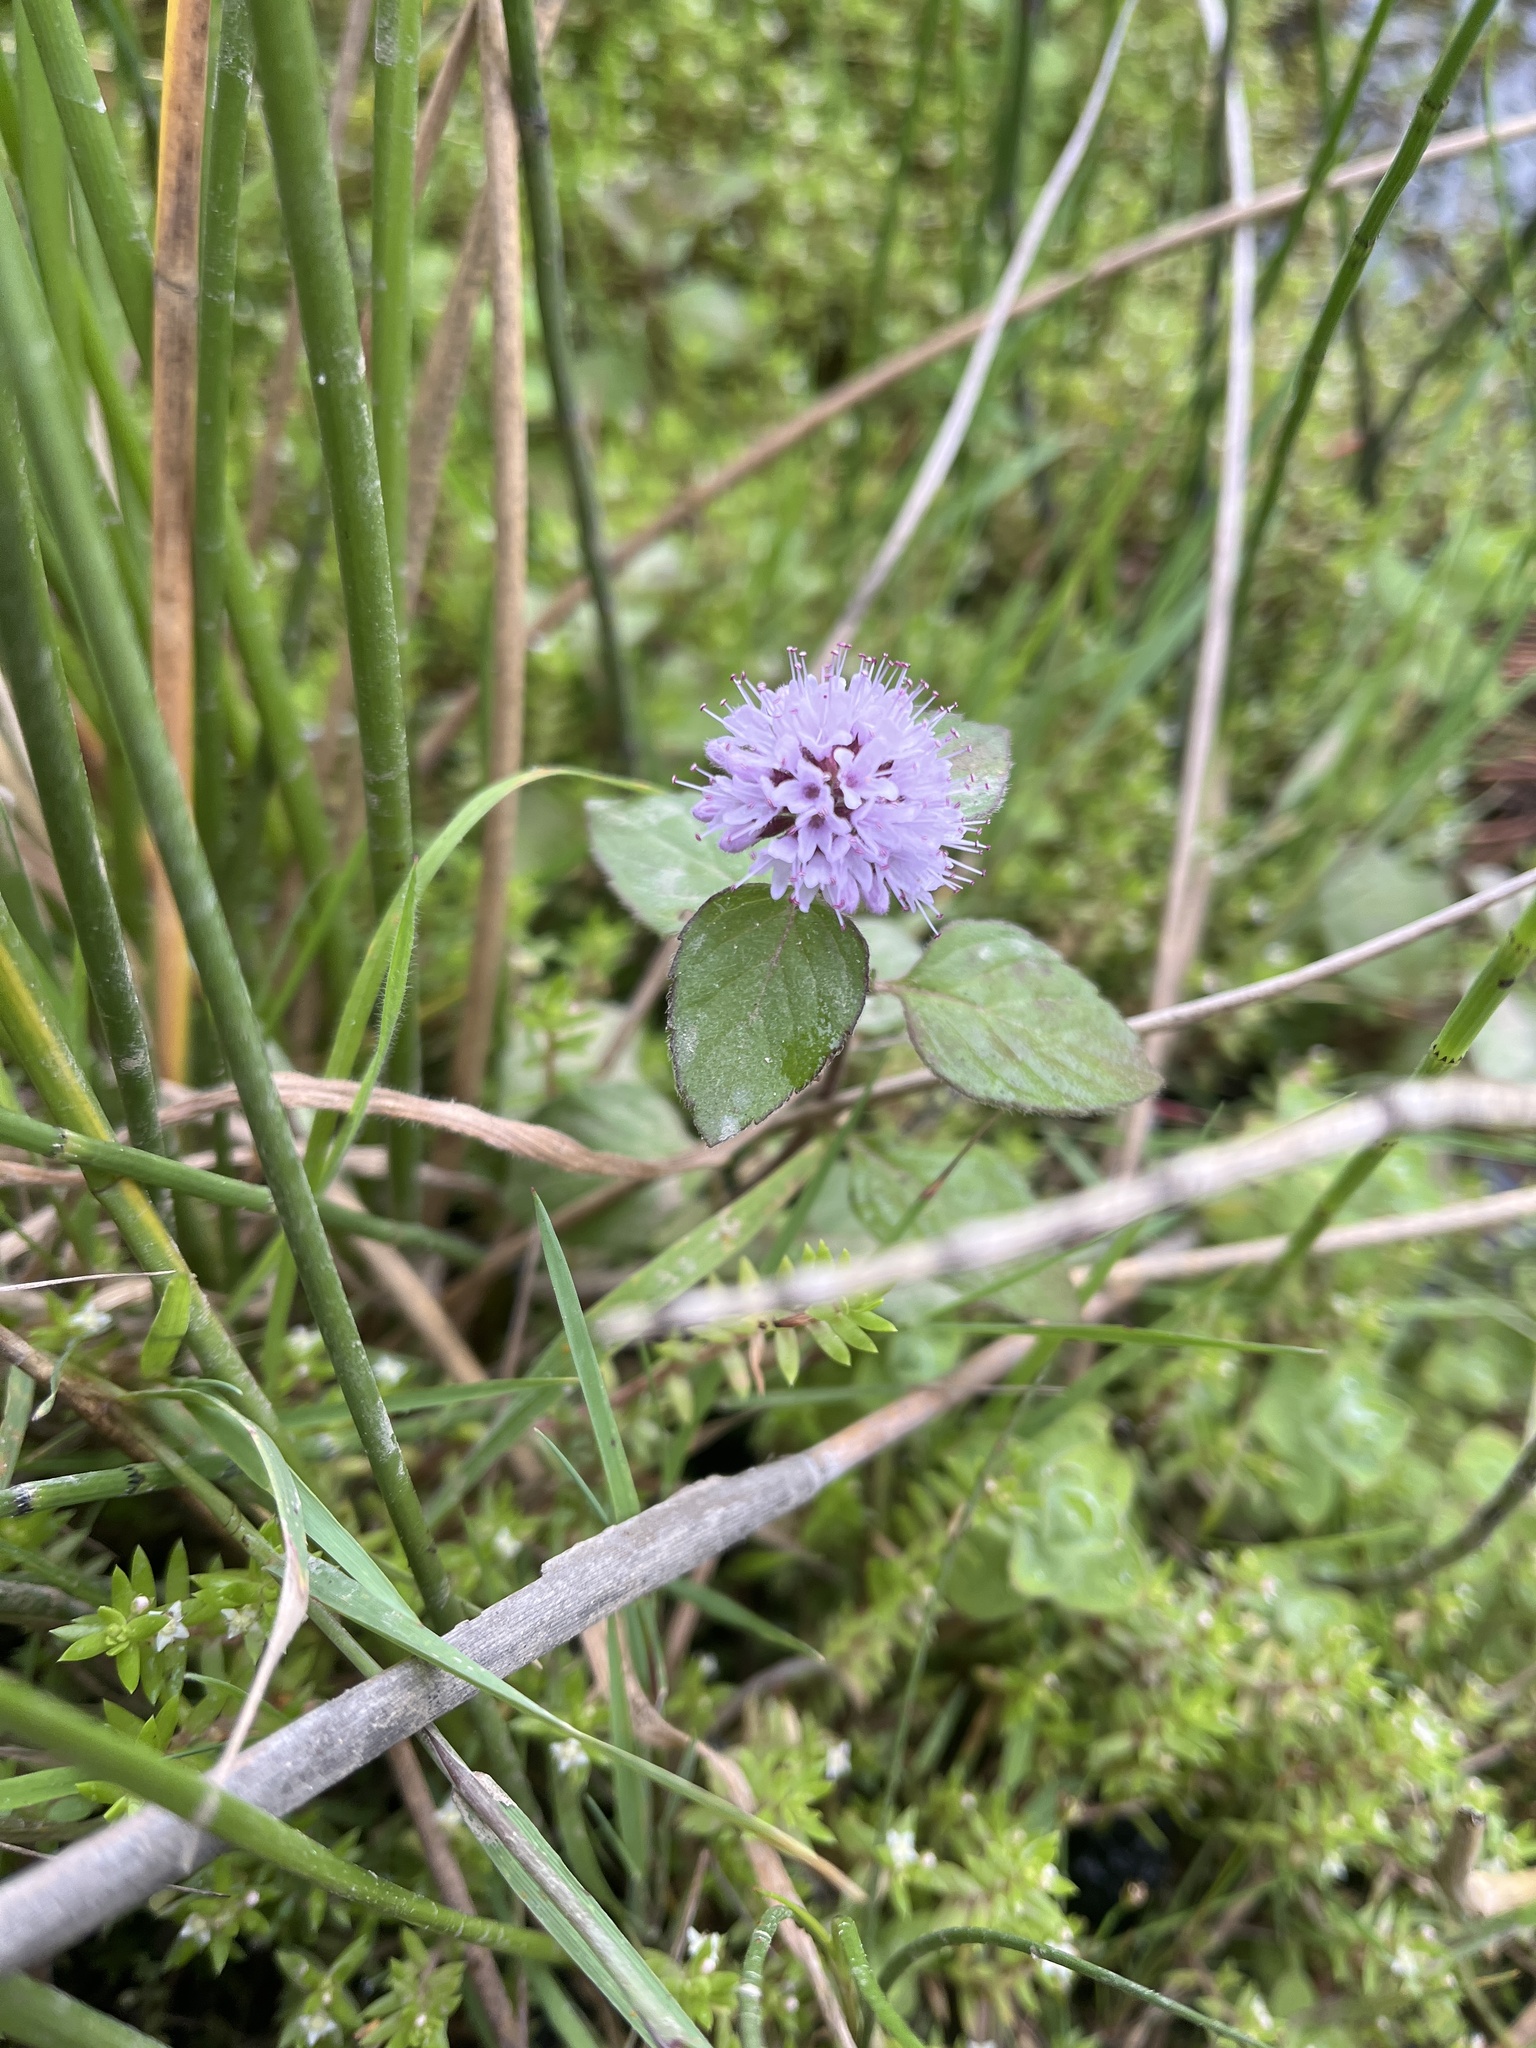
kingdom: Plantae
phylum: Tracheophyta
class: Magnoliopsida
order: Lamiales
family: Lamiaceae
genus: Mentha
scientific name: Mentha aquatica
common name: Water mint
